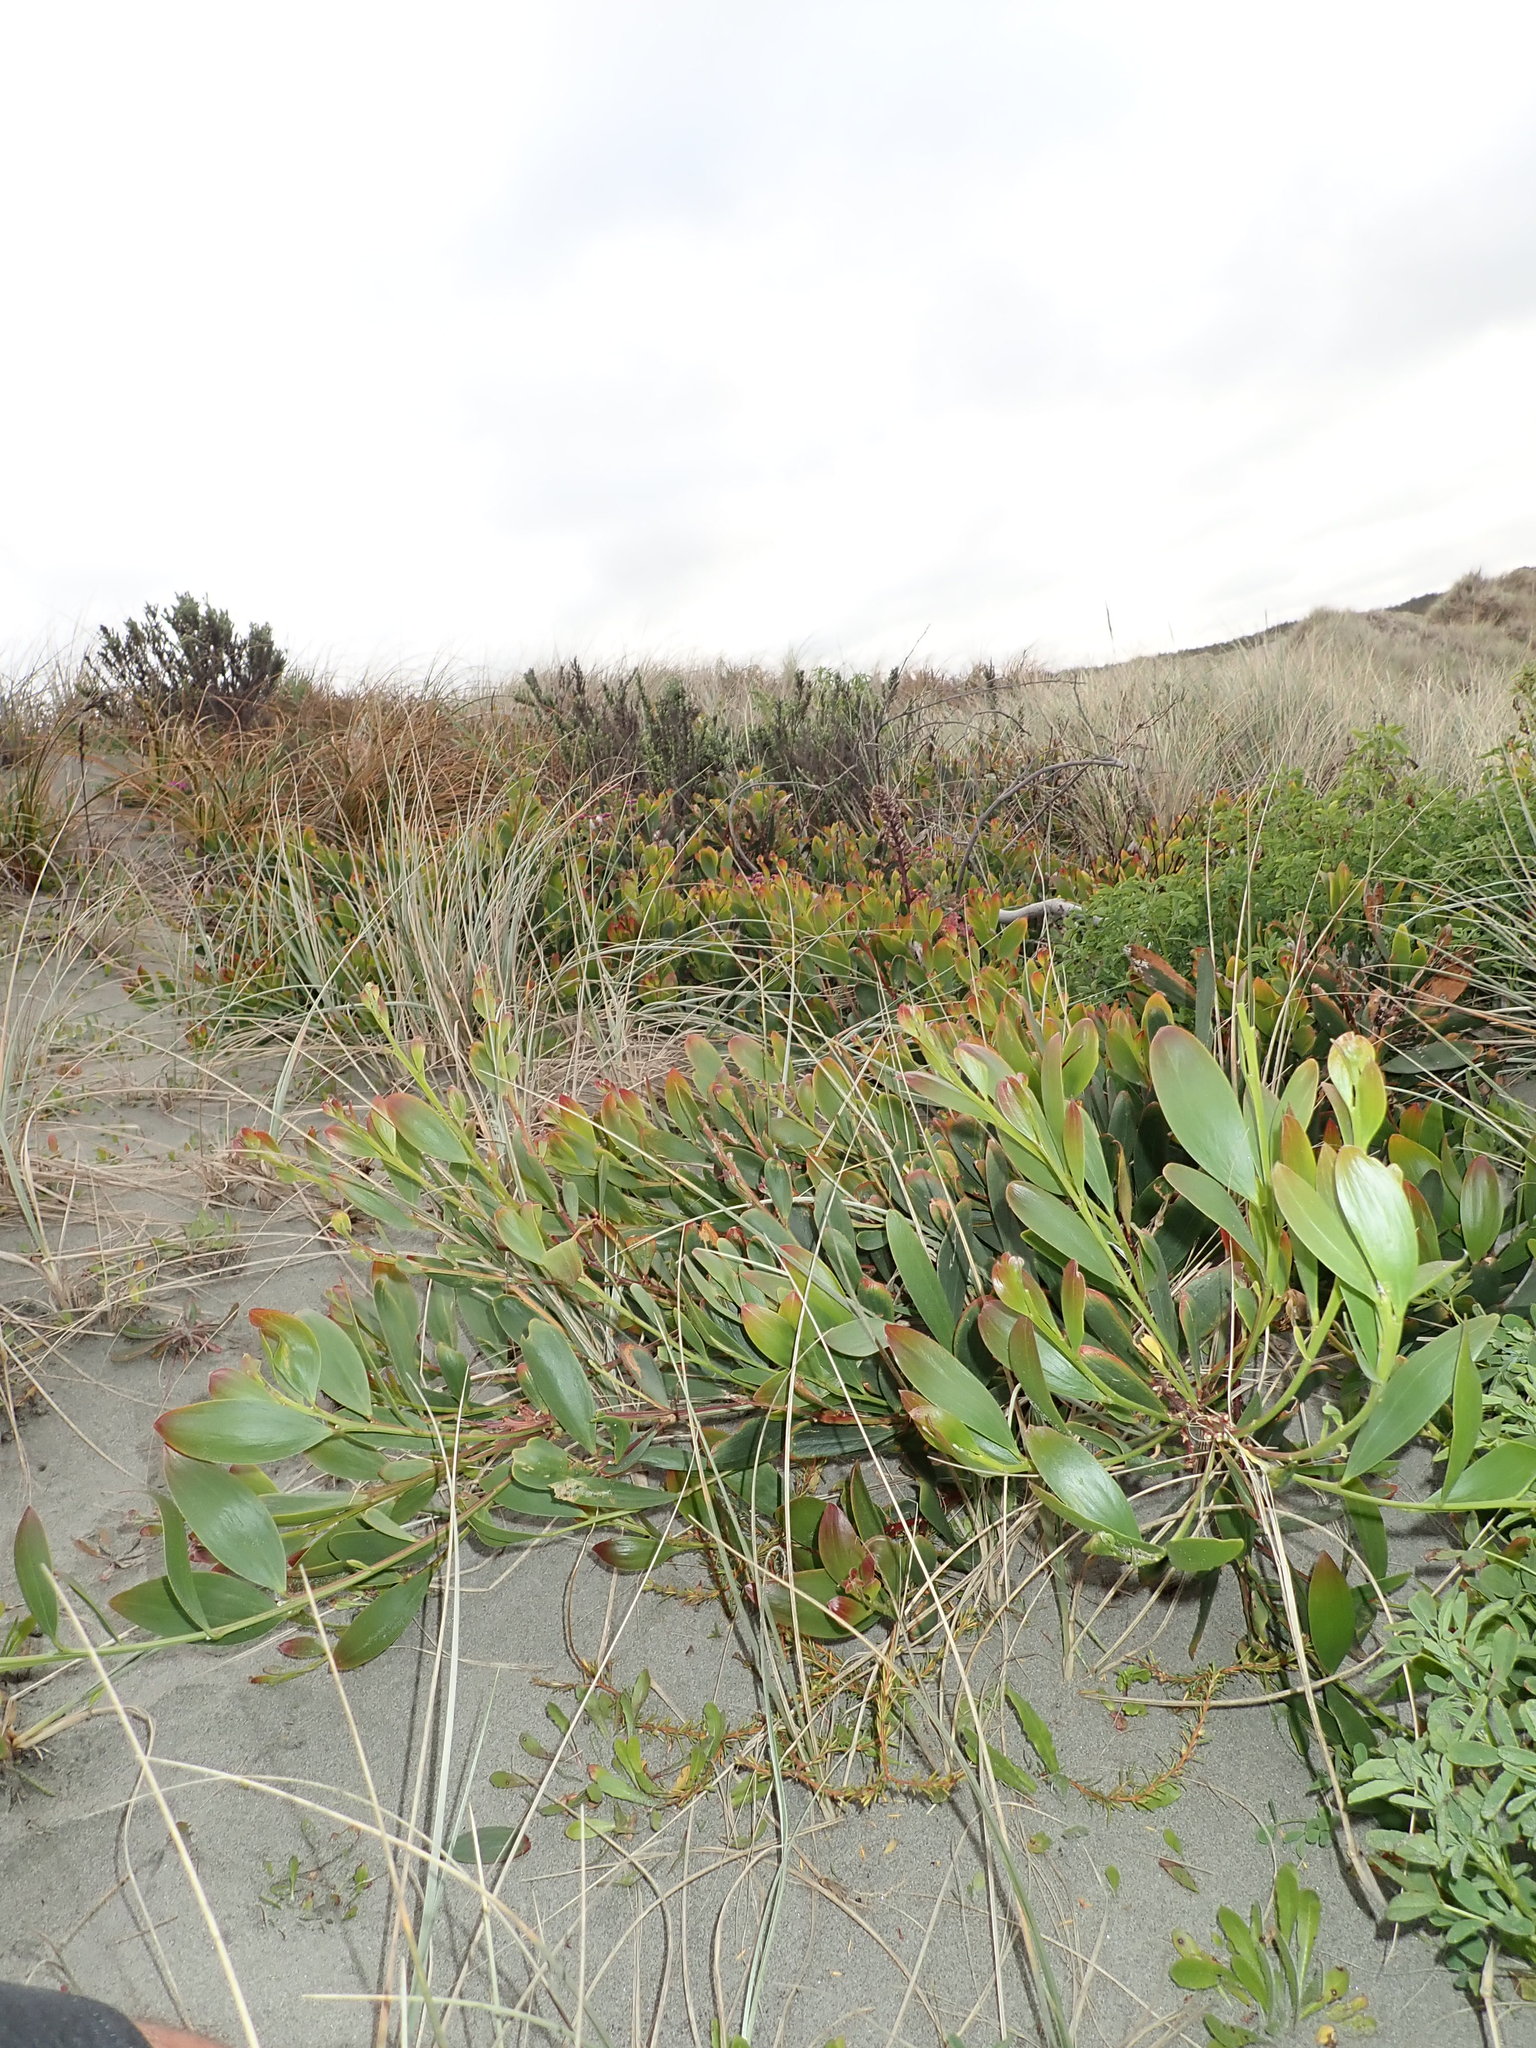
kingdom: Plantae
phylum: Tracheophyta
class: Magnoliopsida
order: Fabales
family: Fabaceae
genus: Acacia
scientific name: Acacia longifolia
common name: Sydney golden wattle
